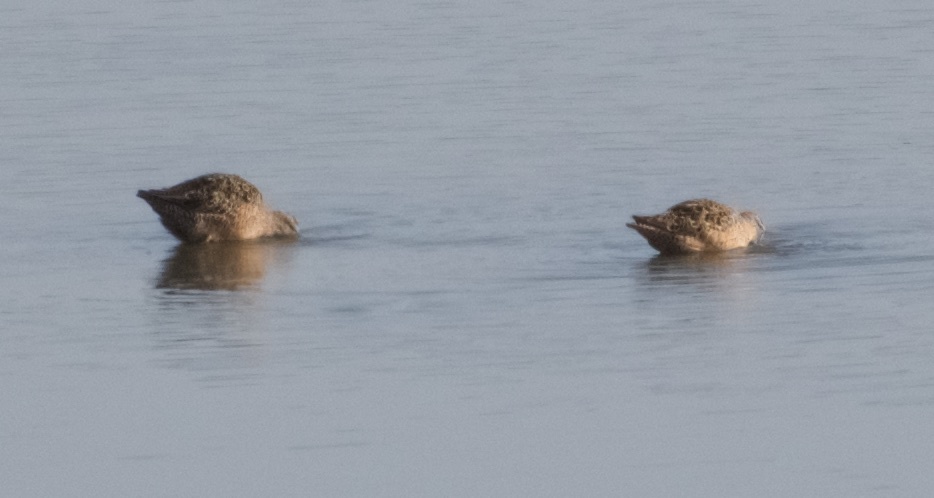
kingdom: Animalia
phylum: Chordata
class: Aves
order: Charadriiformes
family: Scolopacidae
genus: Limnodromus
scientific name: Limnodromus scolopaceus
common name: Long-billed dowitcher
